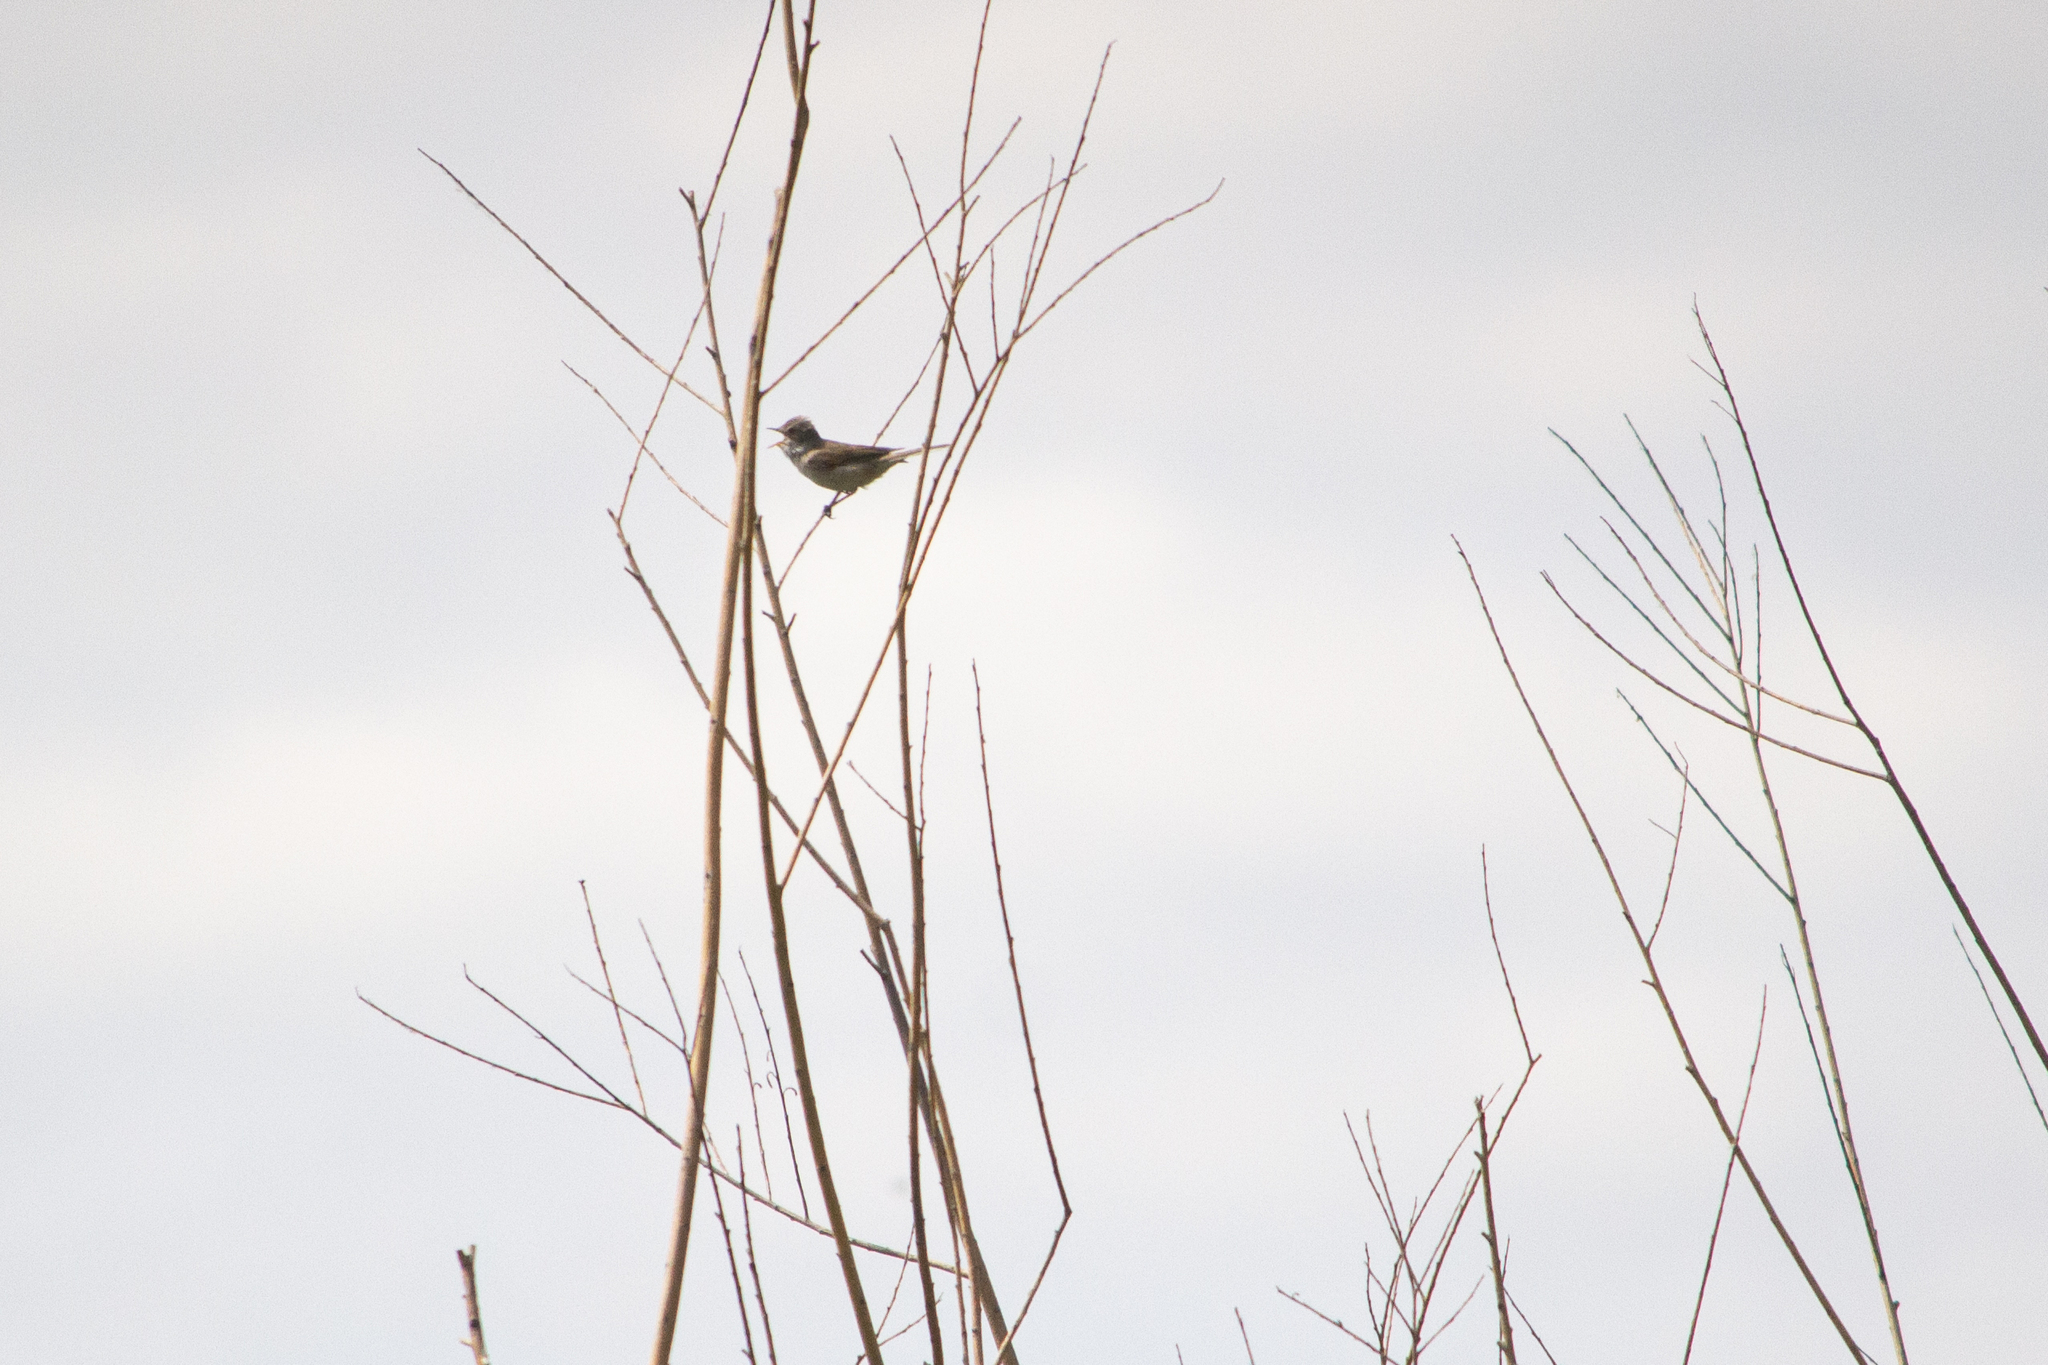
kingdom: Animalia
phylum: Chordata
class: Aves
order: Passeriformes
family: Sylviidae
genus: Sylvia
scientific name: Sylvia communis
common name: Common whitethroat
